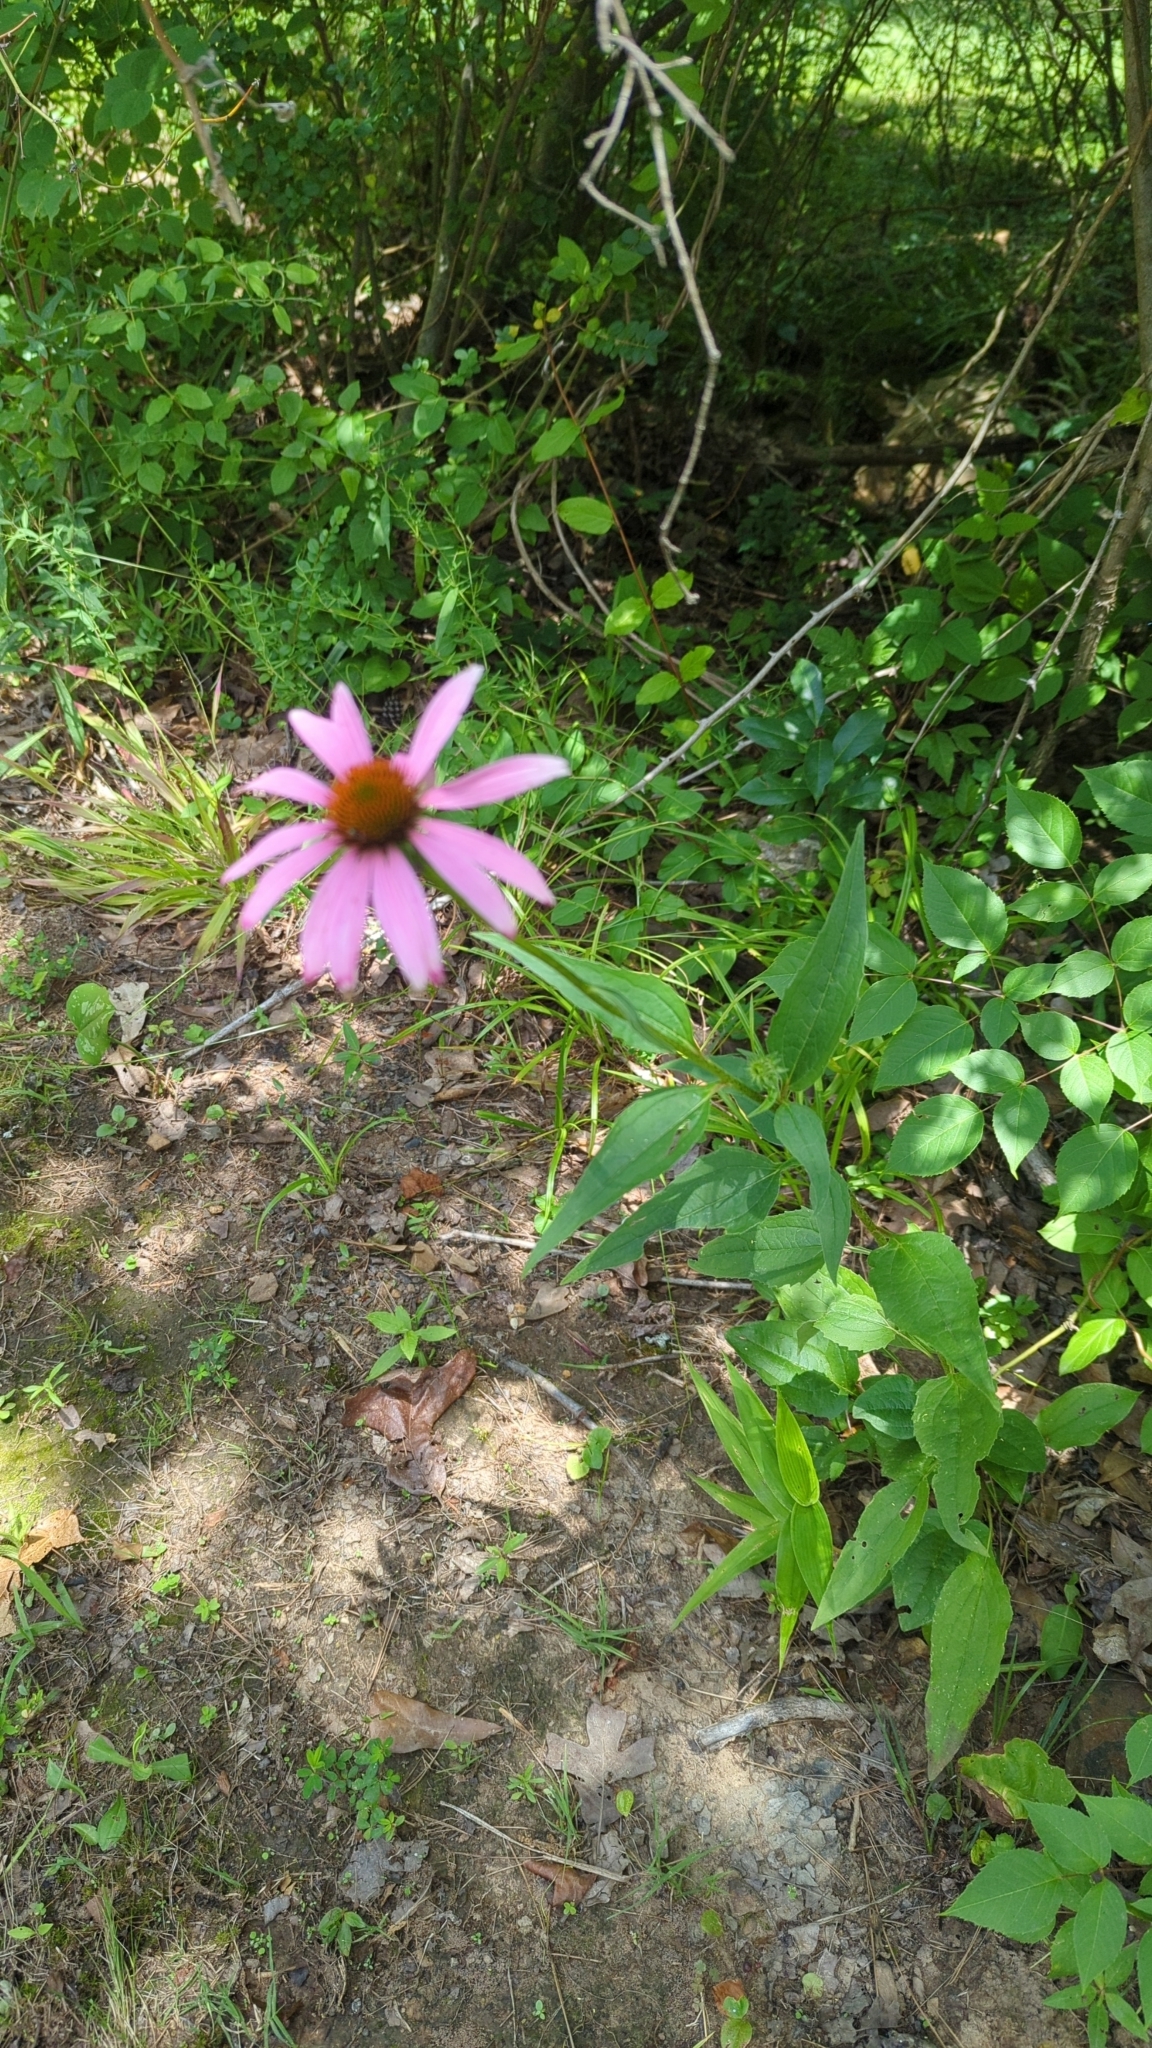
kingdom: Plantae
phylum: Tracheophyta
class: Magnoliopsida
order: Asterales
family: Asteraceae
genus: Echinacea
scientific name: Echinacea purpurea
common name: Broad-leaved purple coneflower
